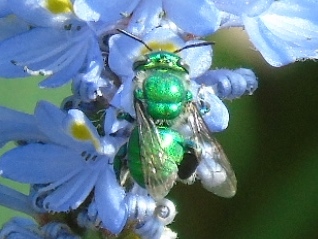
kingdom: Animalia
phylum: Arthropoda
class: Insecta
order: Hymenoptera
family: Apidae
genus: Euglossa
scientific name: Euglossa
